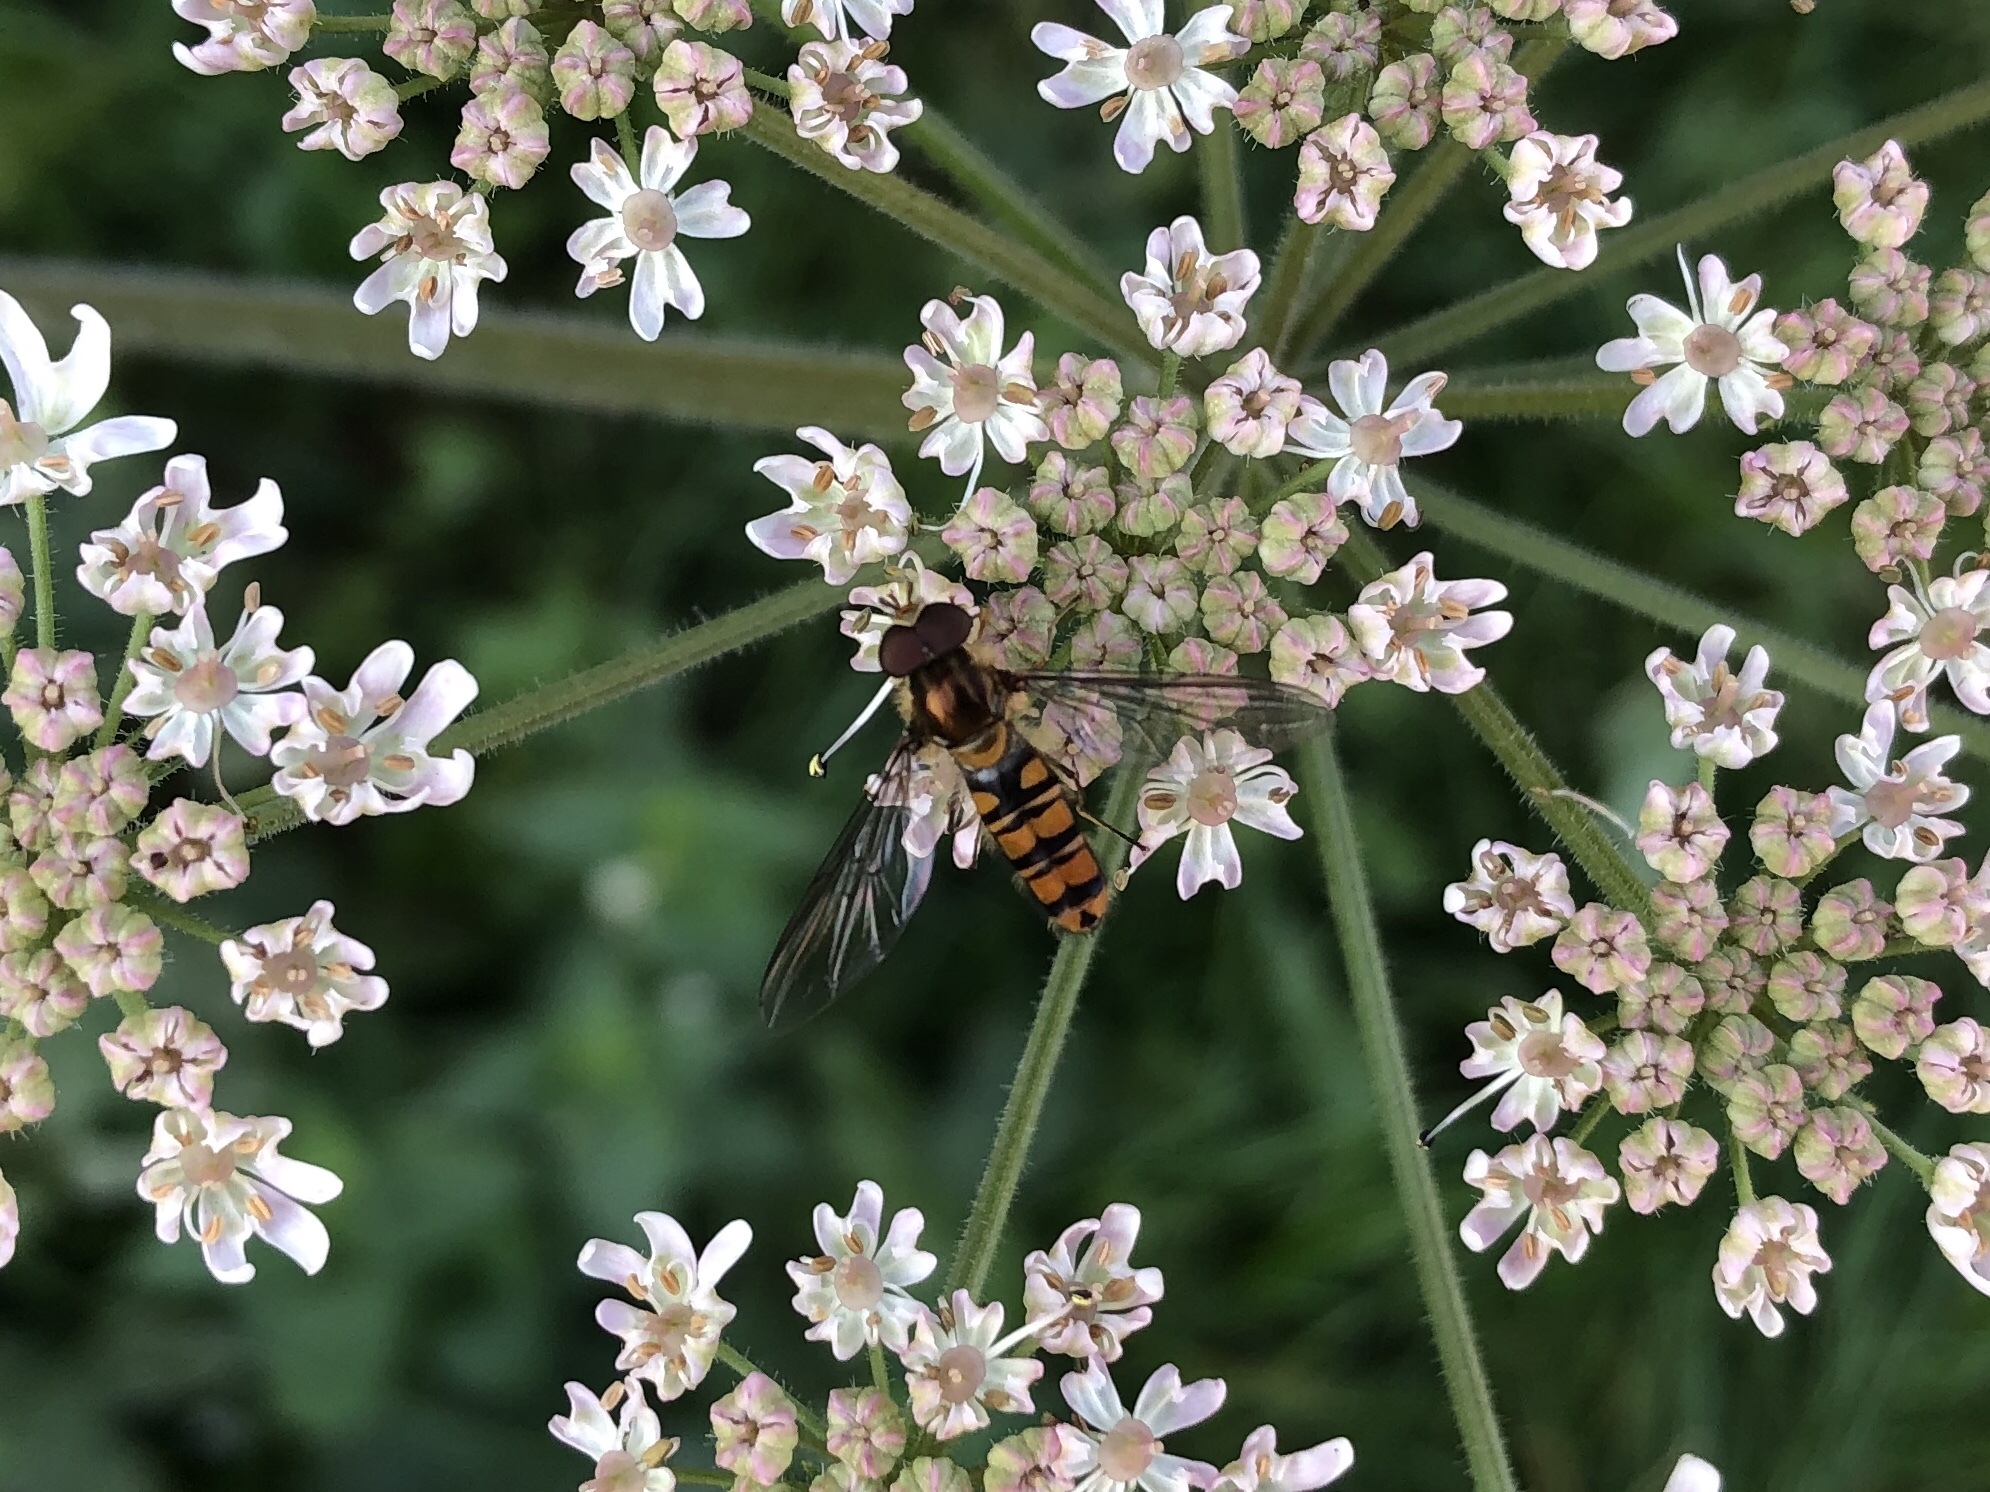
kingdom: Animalia
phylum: Arthropoda
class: Insecta
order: Diptera
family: Syrphidae
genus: Episyrphus
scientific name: Episyrphus balteatus
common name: Marmalade hoverfly
